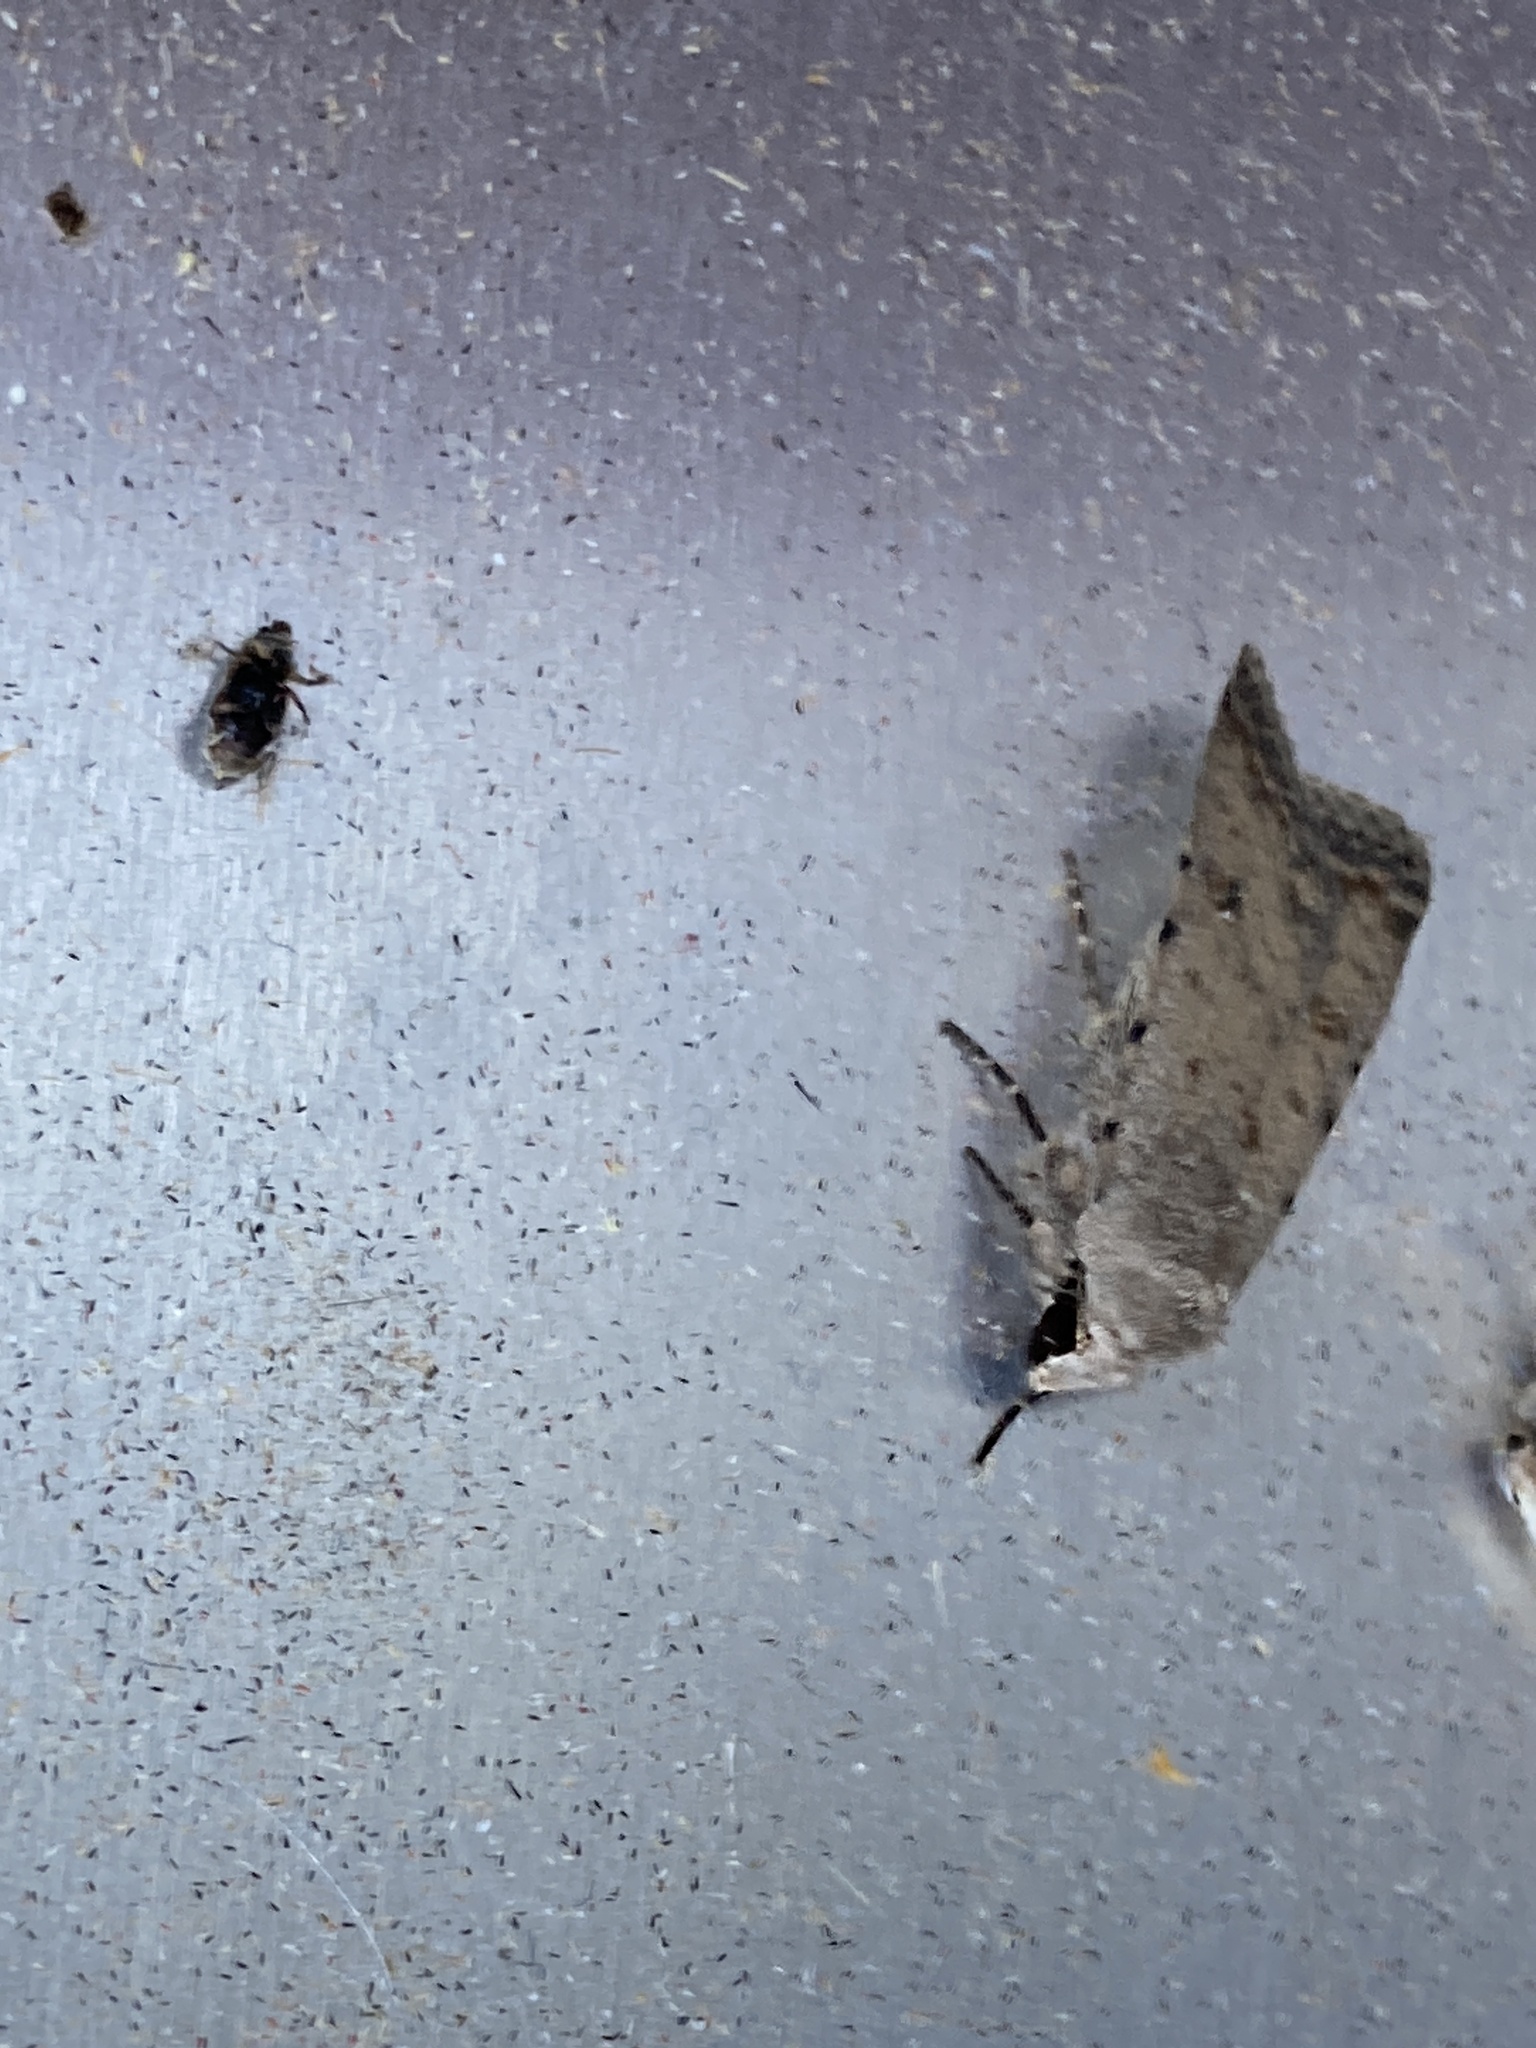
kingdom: Animalia
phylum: Arthropoda
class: Insecta
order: Lepidoptera
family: Noctuidae
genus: Caradrina
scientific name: Caradrina clavipalpis
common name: Pale mottled willow
